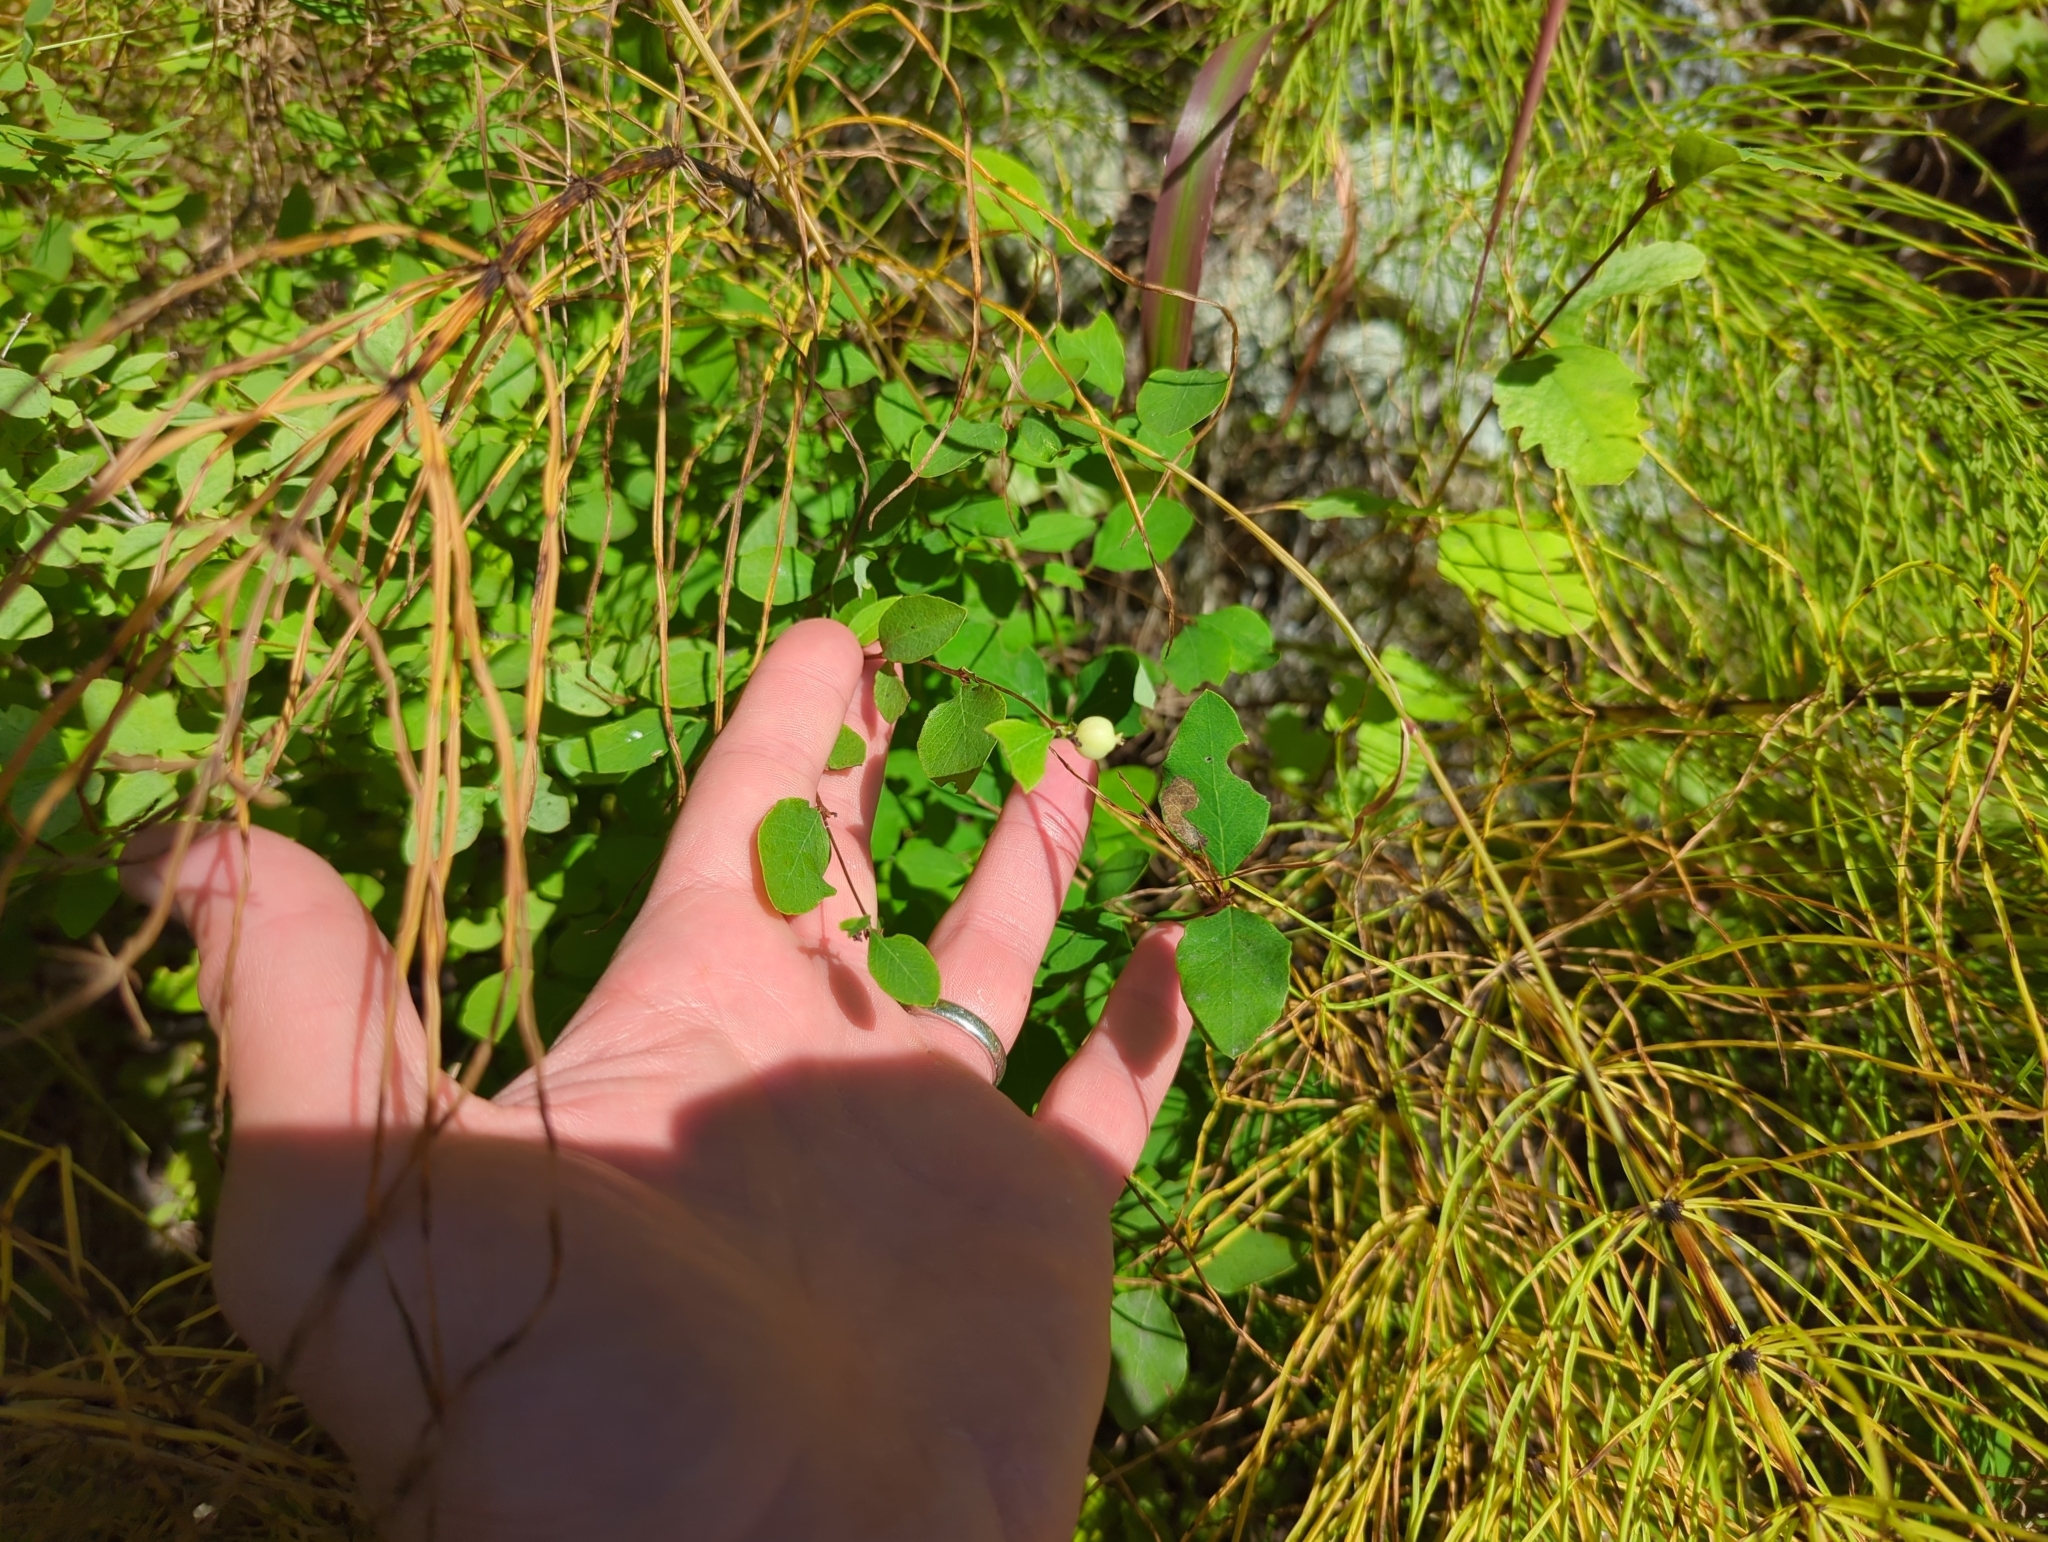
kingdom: Plantae
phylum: Tracheophyta
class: Magnoliopsida
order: Dipsacales
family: Caprifoliaceae
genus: Symphoricarpos
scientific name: Symphoricarpos albus
